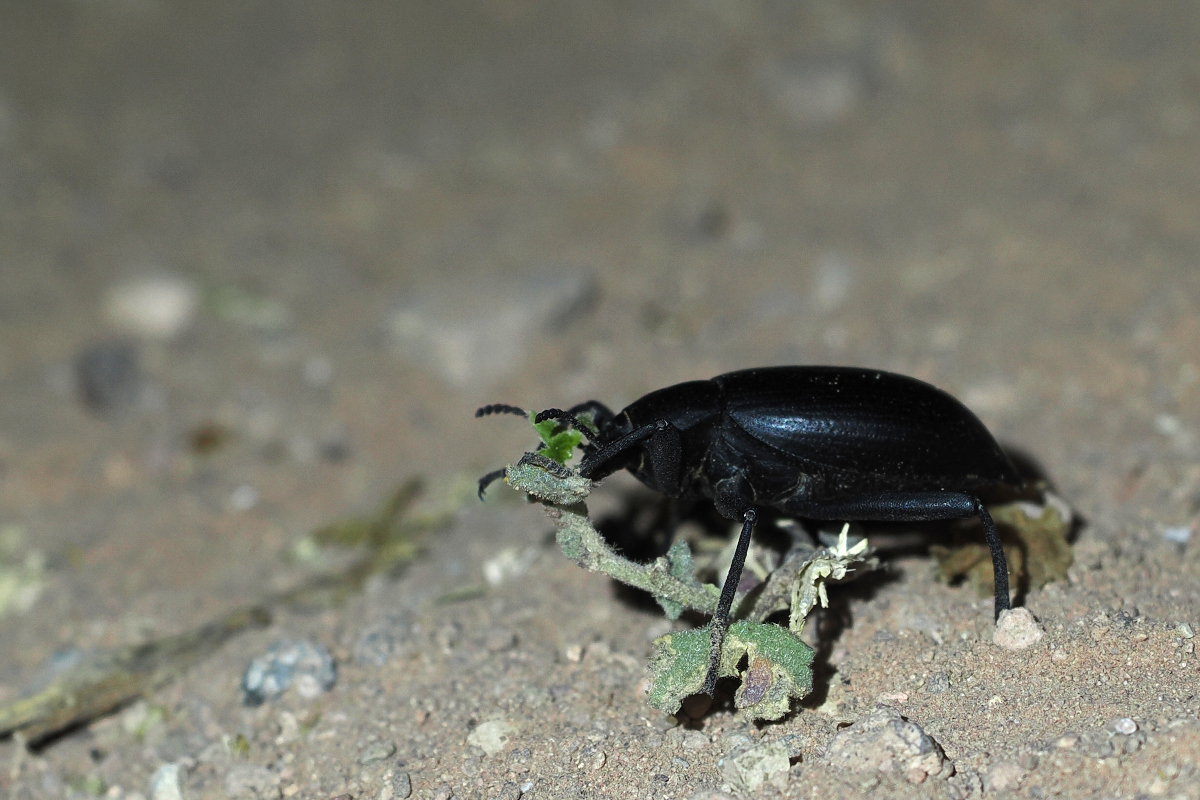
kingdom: Animalia
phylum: Arthropoda
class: Insecta
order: Coleoptera
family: Tenebrionidae
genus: Eleodes
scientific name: Eleodes mexicana
